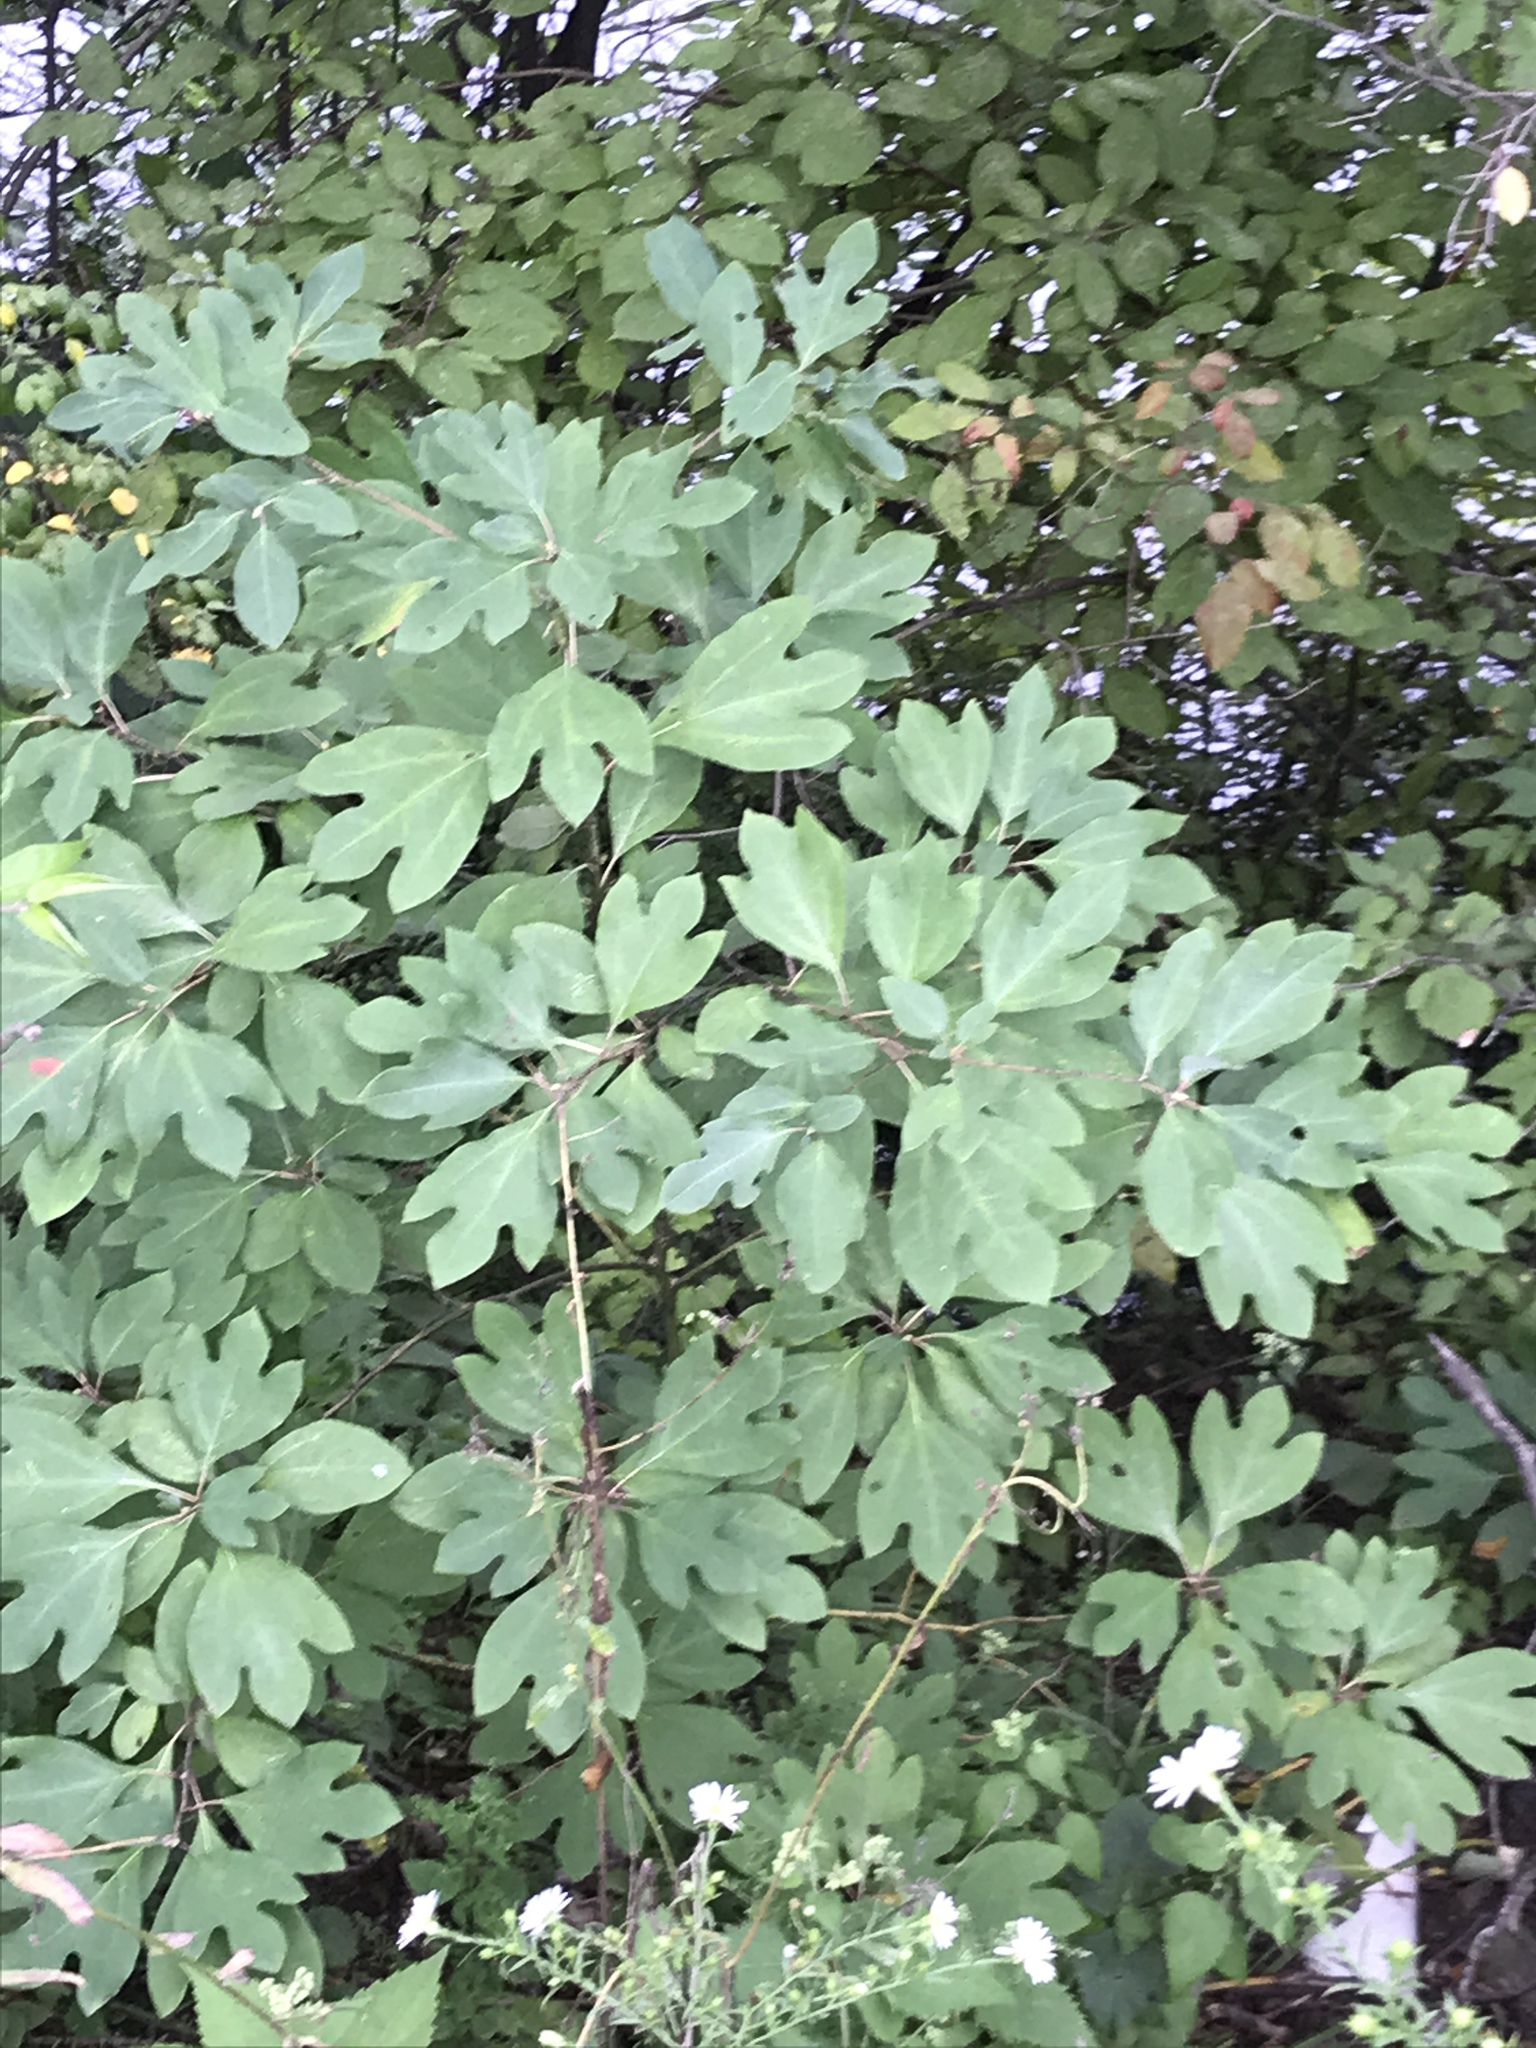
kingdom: Plantae
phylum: Tracheophyta
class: Magnoliopsida
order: Laurales
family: Lauraceae
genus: Sassafras
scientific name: Sassafras albidum
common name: Sassafras
